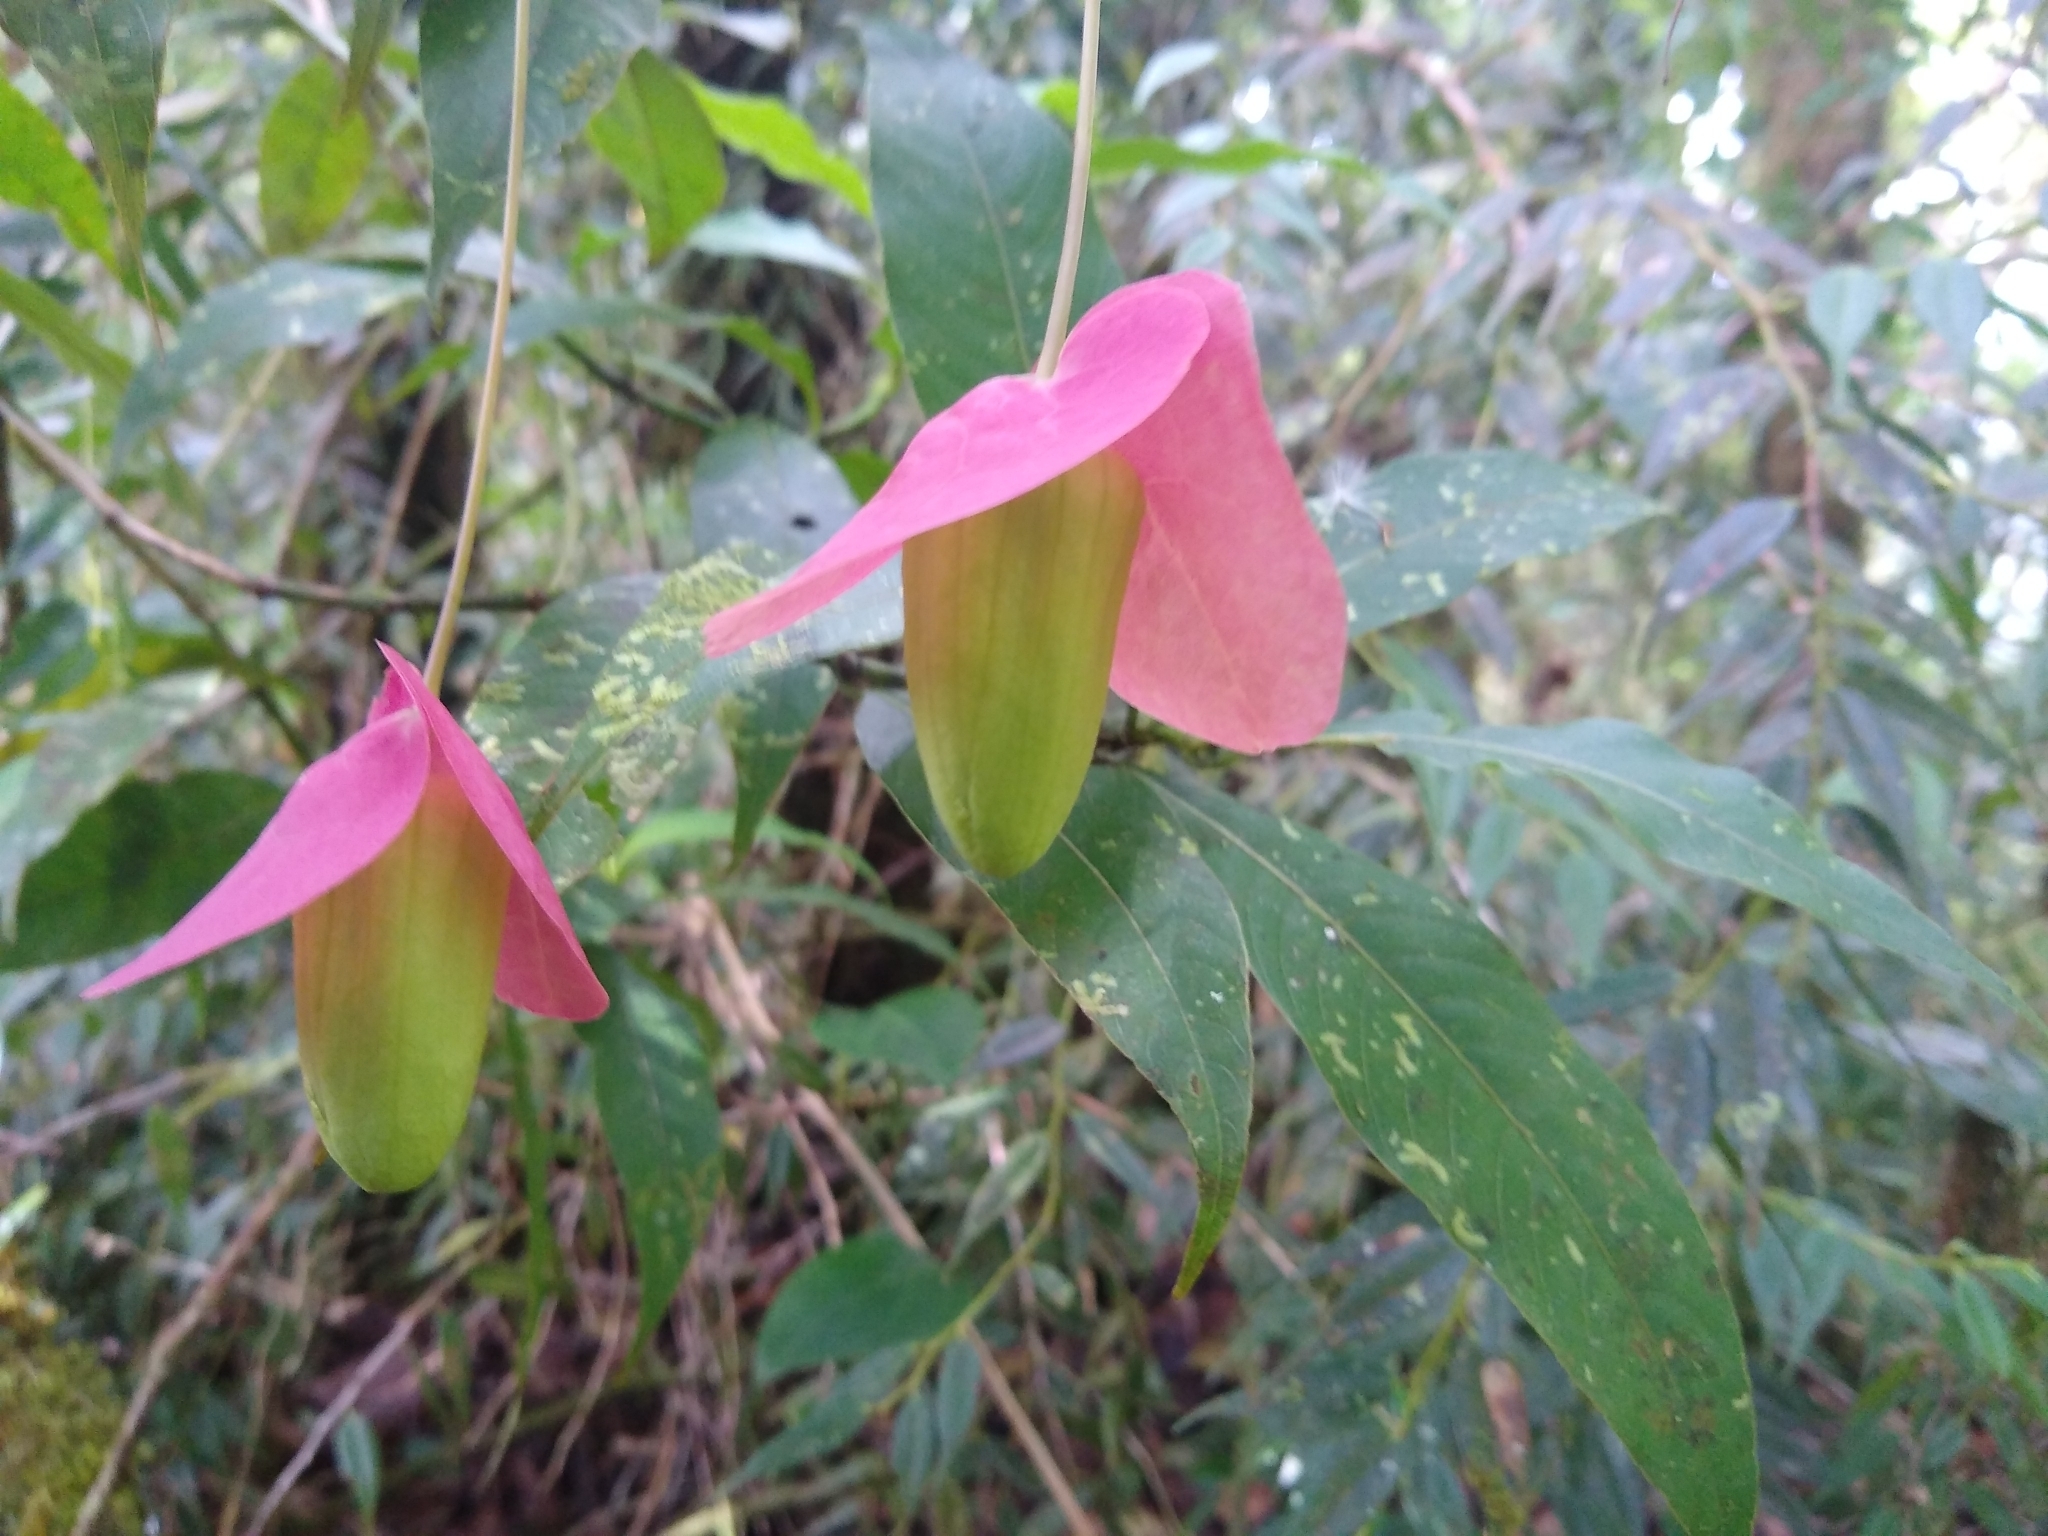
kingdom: Plantae
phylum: Tracheophyta
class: Magnoliopsida
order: Malpighiales
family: Passifloraceae
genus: Passiflora
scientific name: Passiflora membranacea
